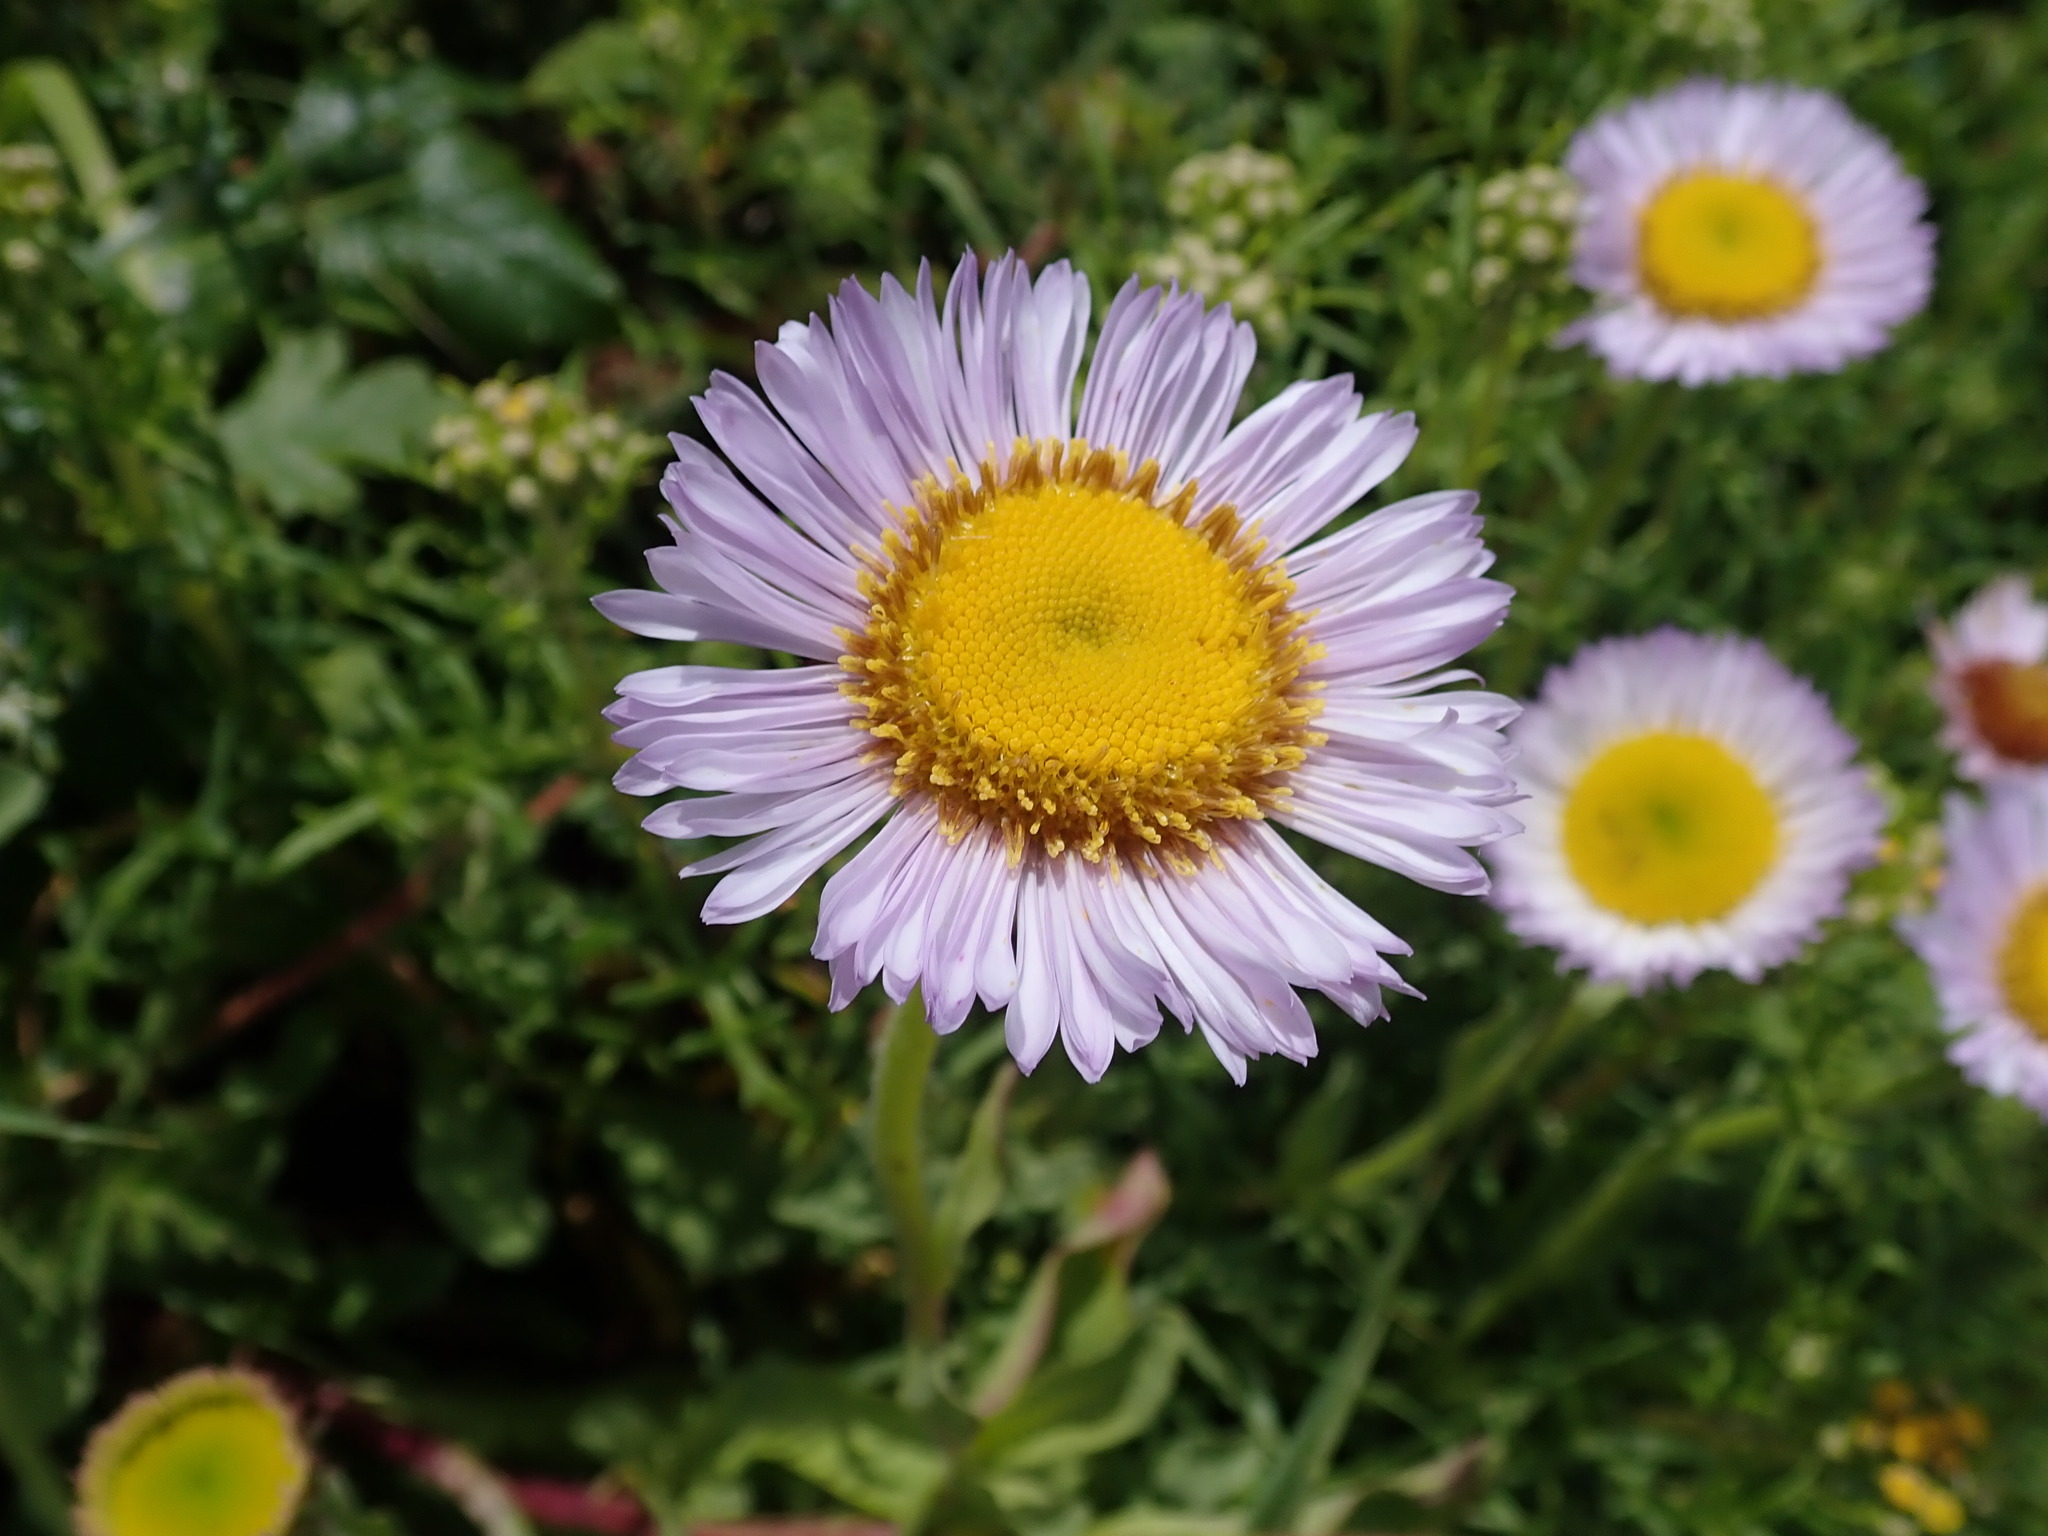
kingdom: Plantae
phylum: Tracheophyta
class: Magnoliopsida
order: Asterales
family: Asteraceae
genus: Erigeron
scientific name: Erigeron glaucus
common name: Seaside daisy
